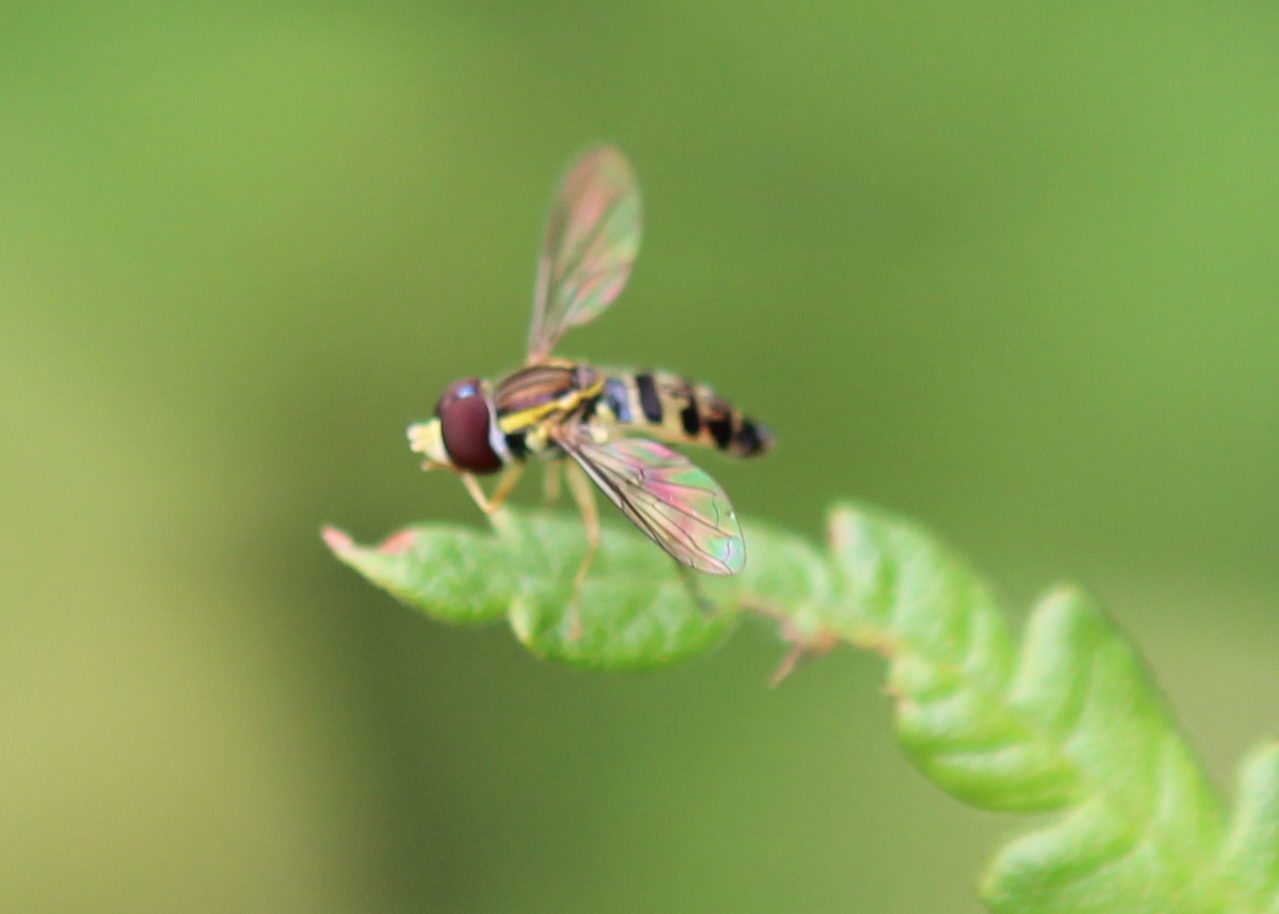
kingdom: Animalia
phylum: Arthropoda
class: Insecta
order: Diptera
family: Syrphidae
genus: Toxomerus
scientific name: Toxomerus geminatus
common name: Eastern calligrapher
